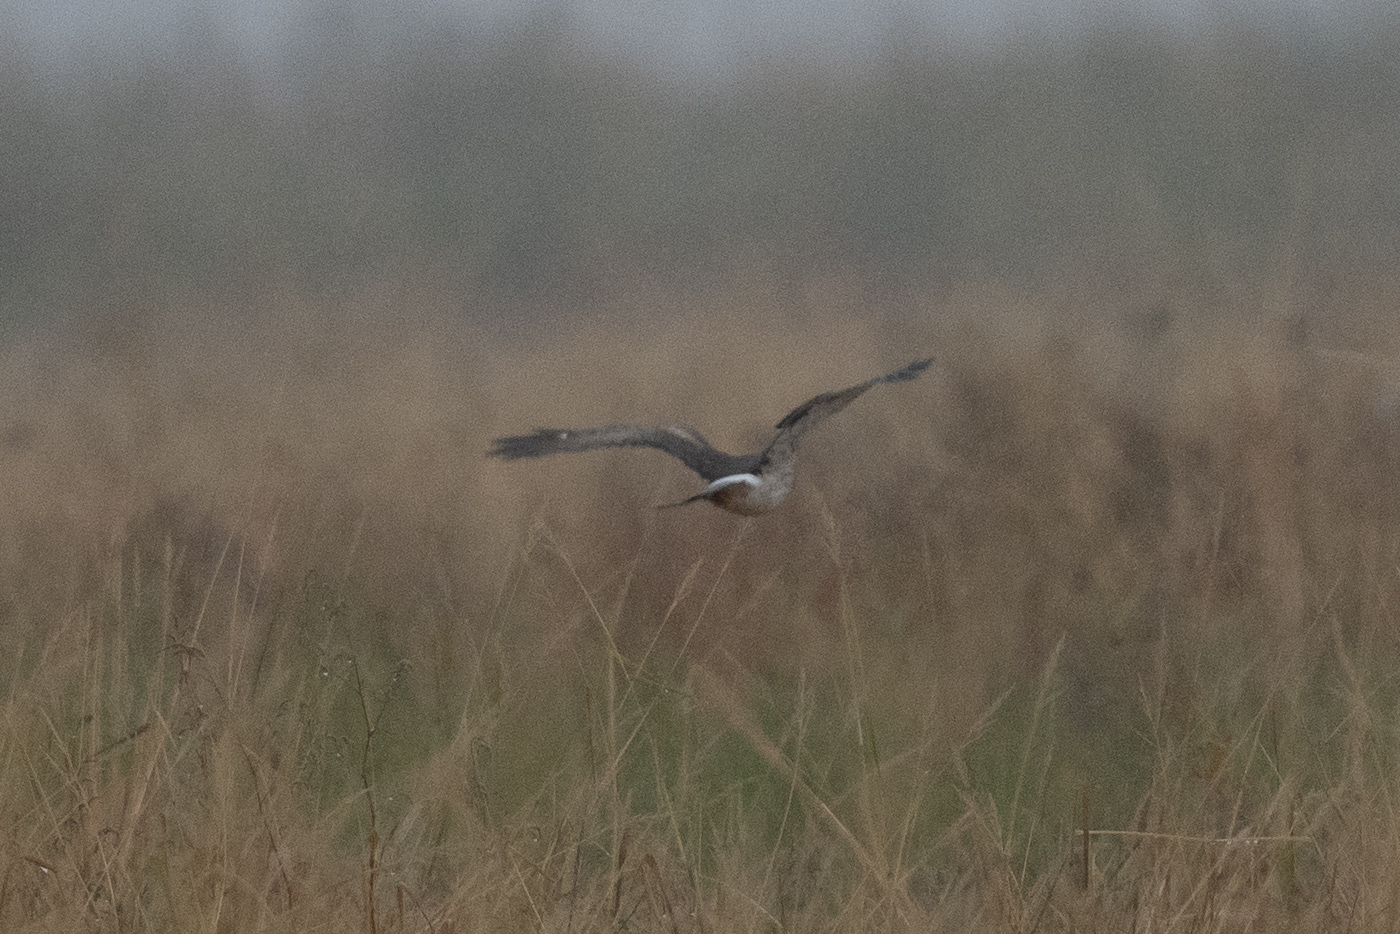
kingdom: Animalia
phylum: Chordata
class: Aves
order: Accipitriformes
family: Accipitridae
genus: Circus
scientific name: Circus cyaneus
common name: Hen harrier
